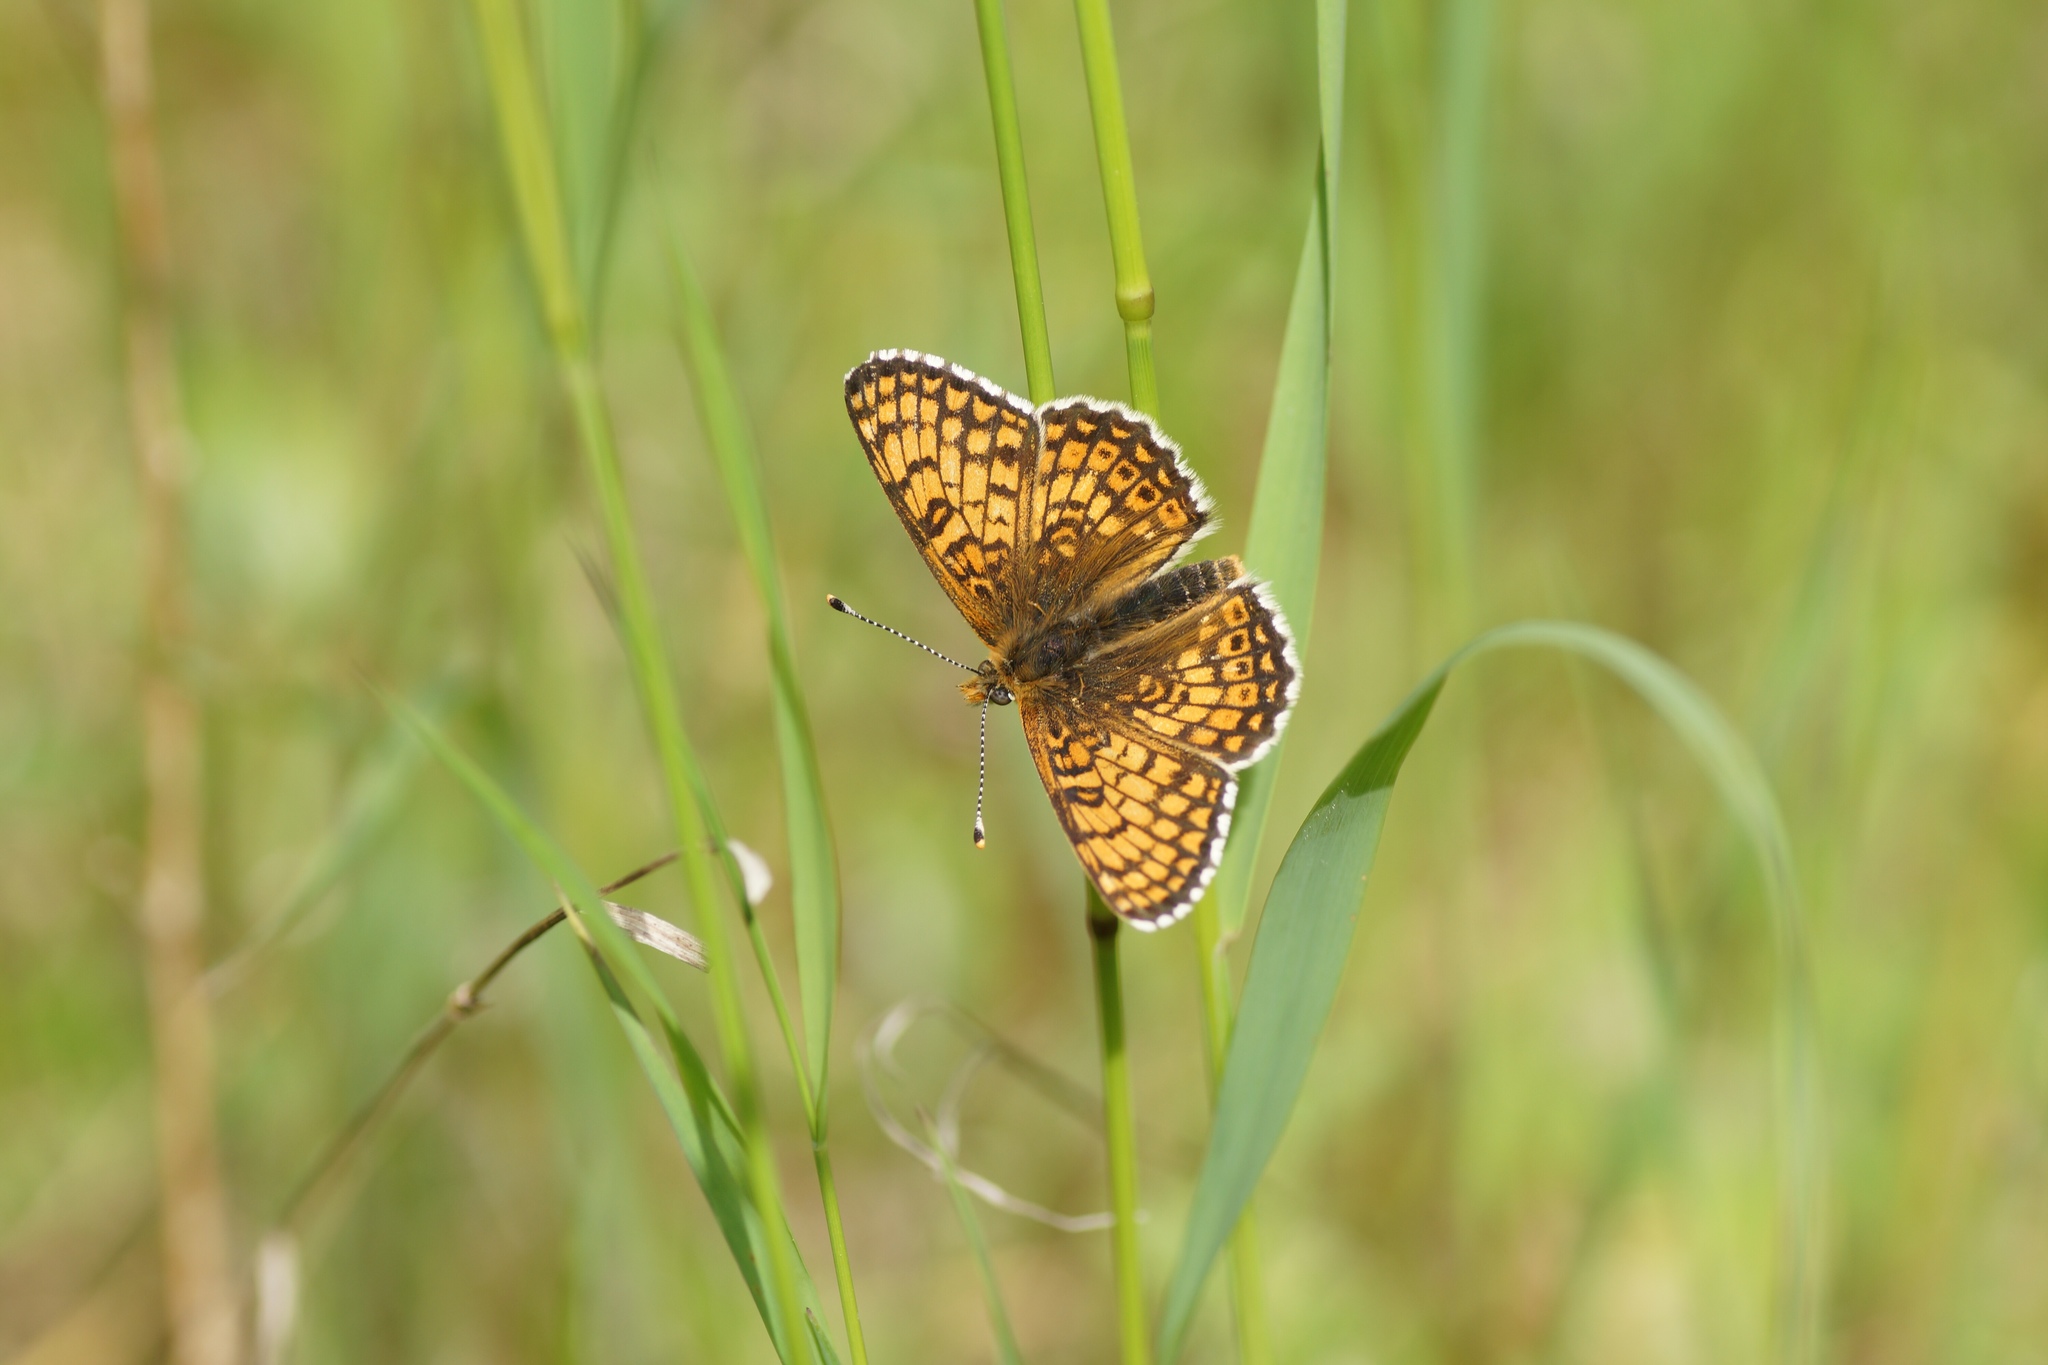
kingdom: Animalia
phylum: Arthropoda
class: Insecta
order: Lepidoptera
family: Nymphalidae
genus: Melitaea
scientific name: Melitaea cinxia
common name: Glanville fritillary
